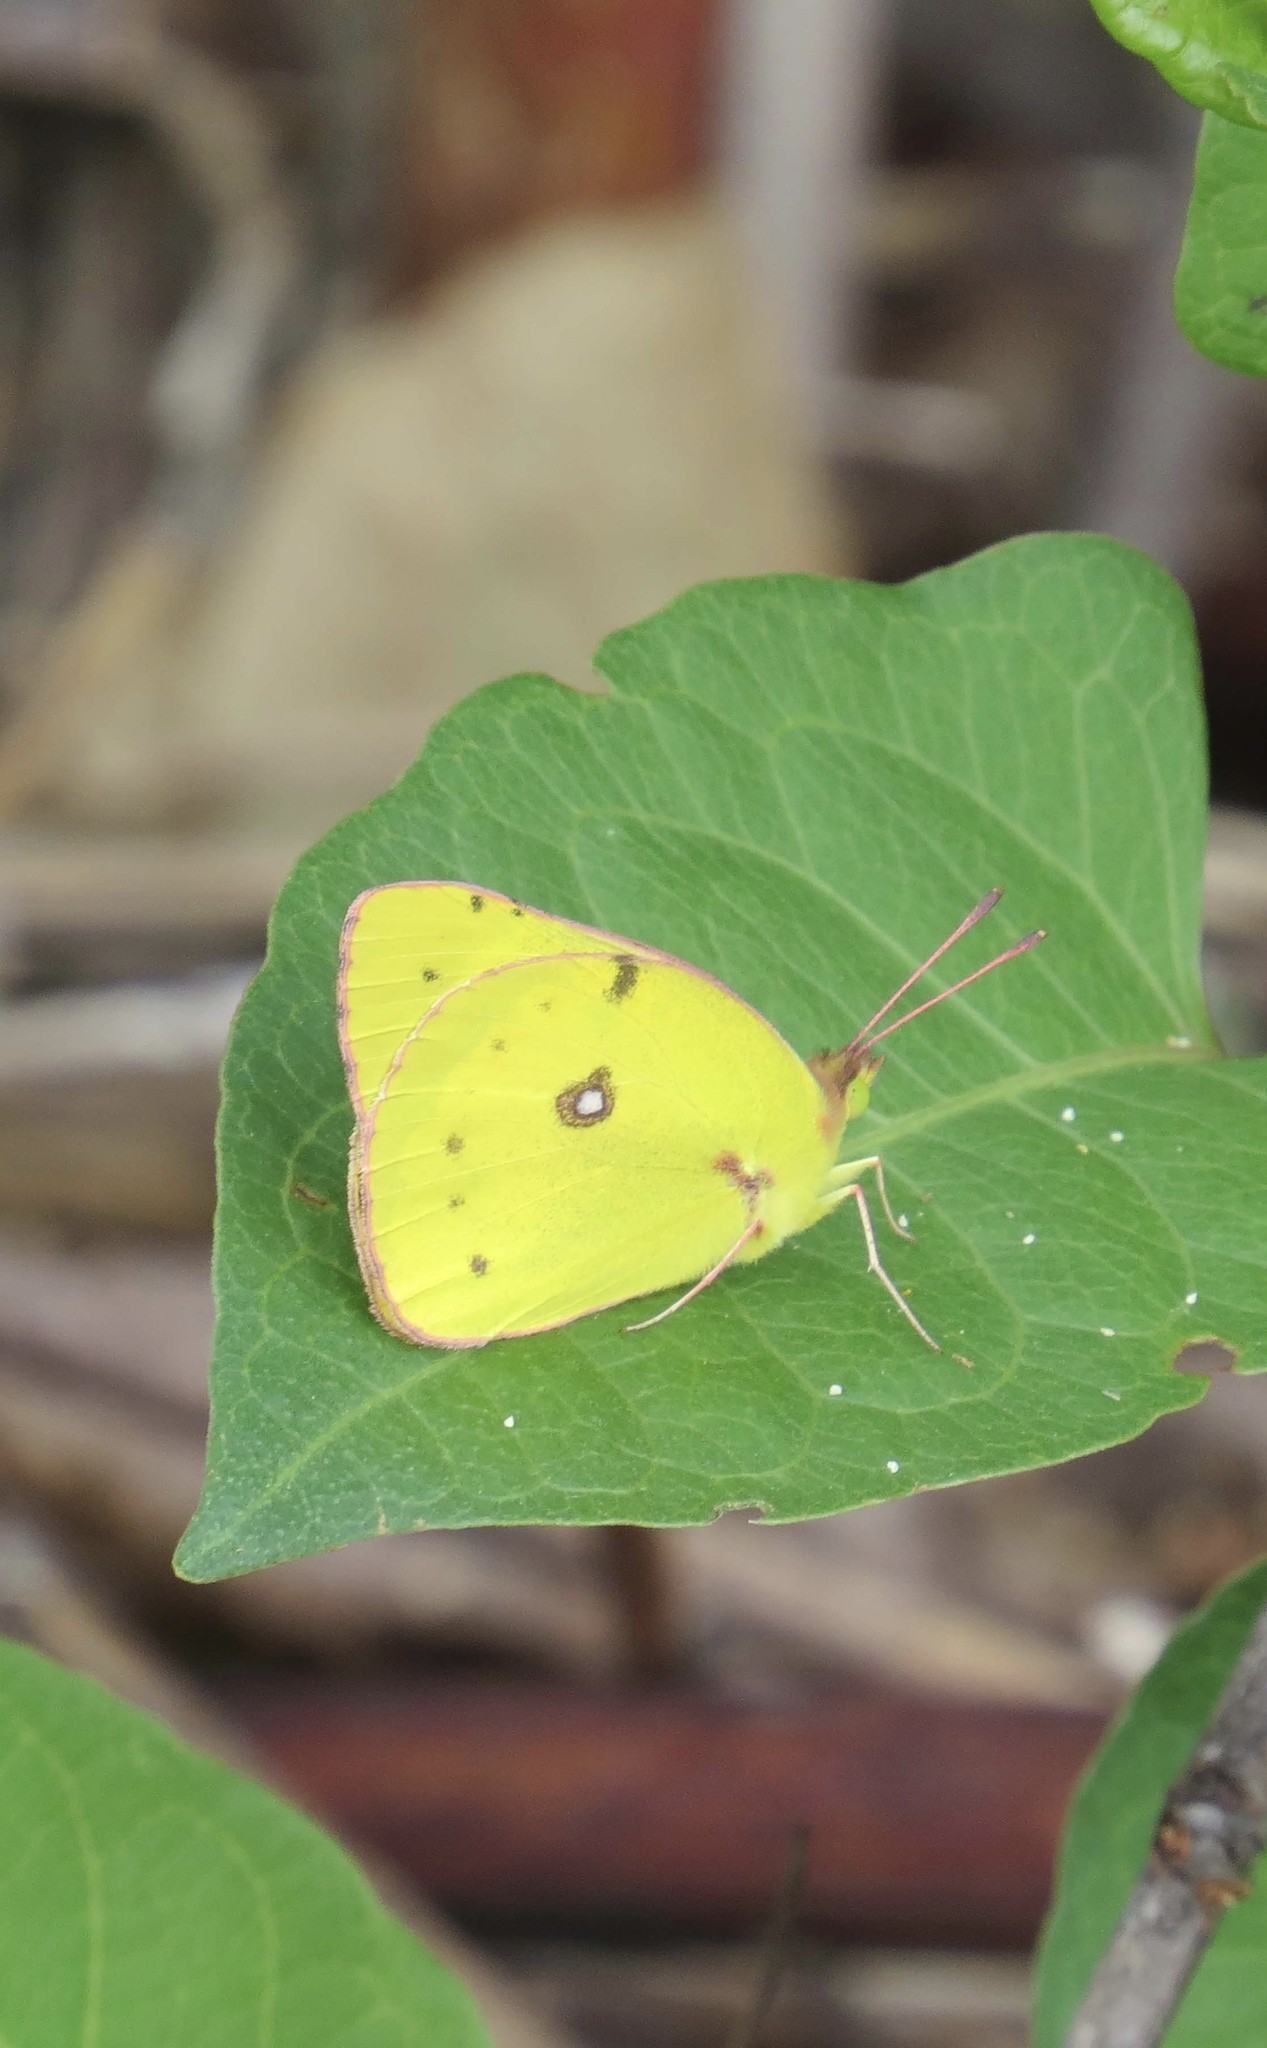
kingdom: Animalia
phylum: Arthropoda
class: Insecta
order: Lepidoptera
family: Pieridae
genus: Colias
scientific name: Colias eurytheme
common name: Alfalfa butterfly
